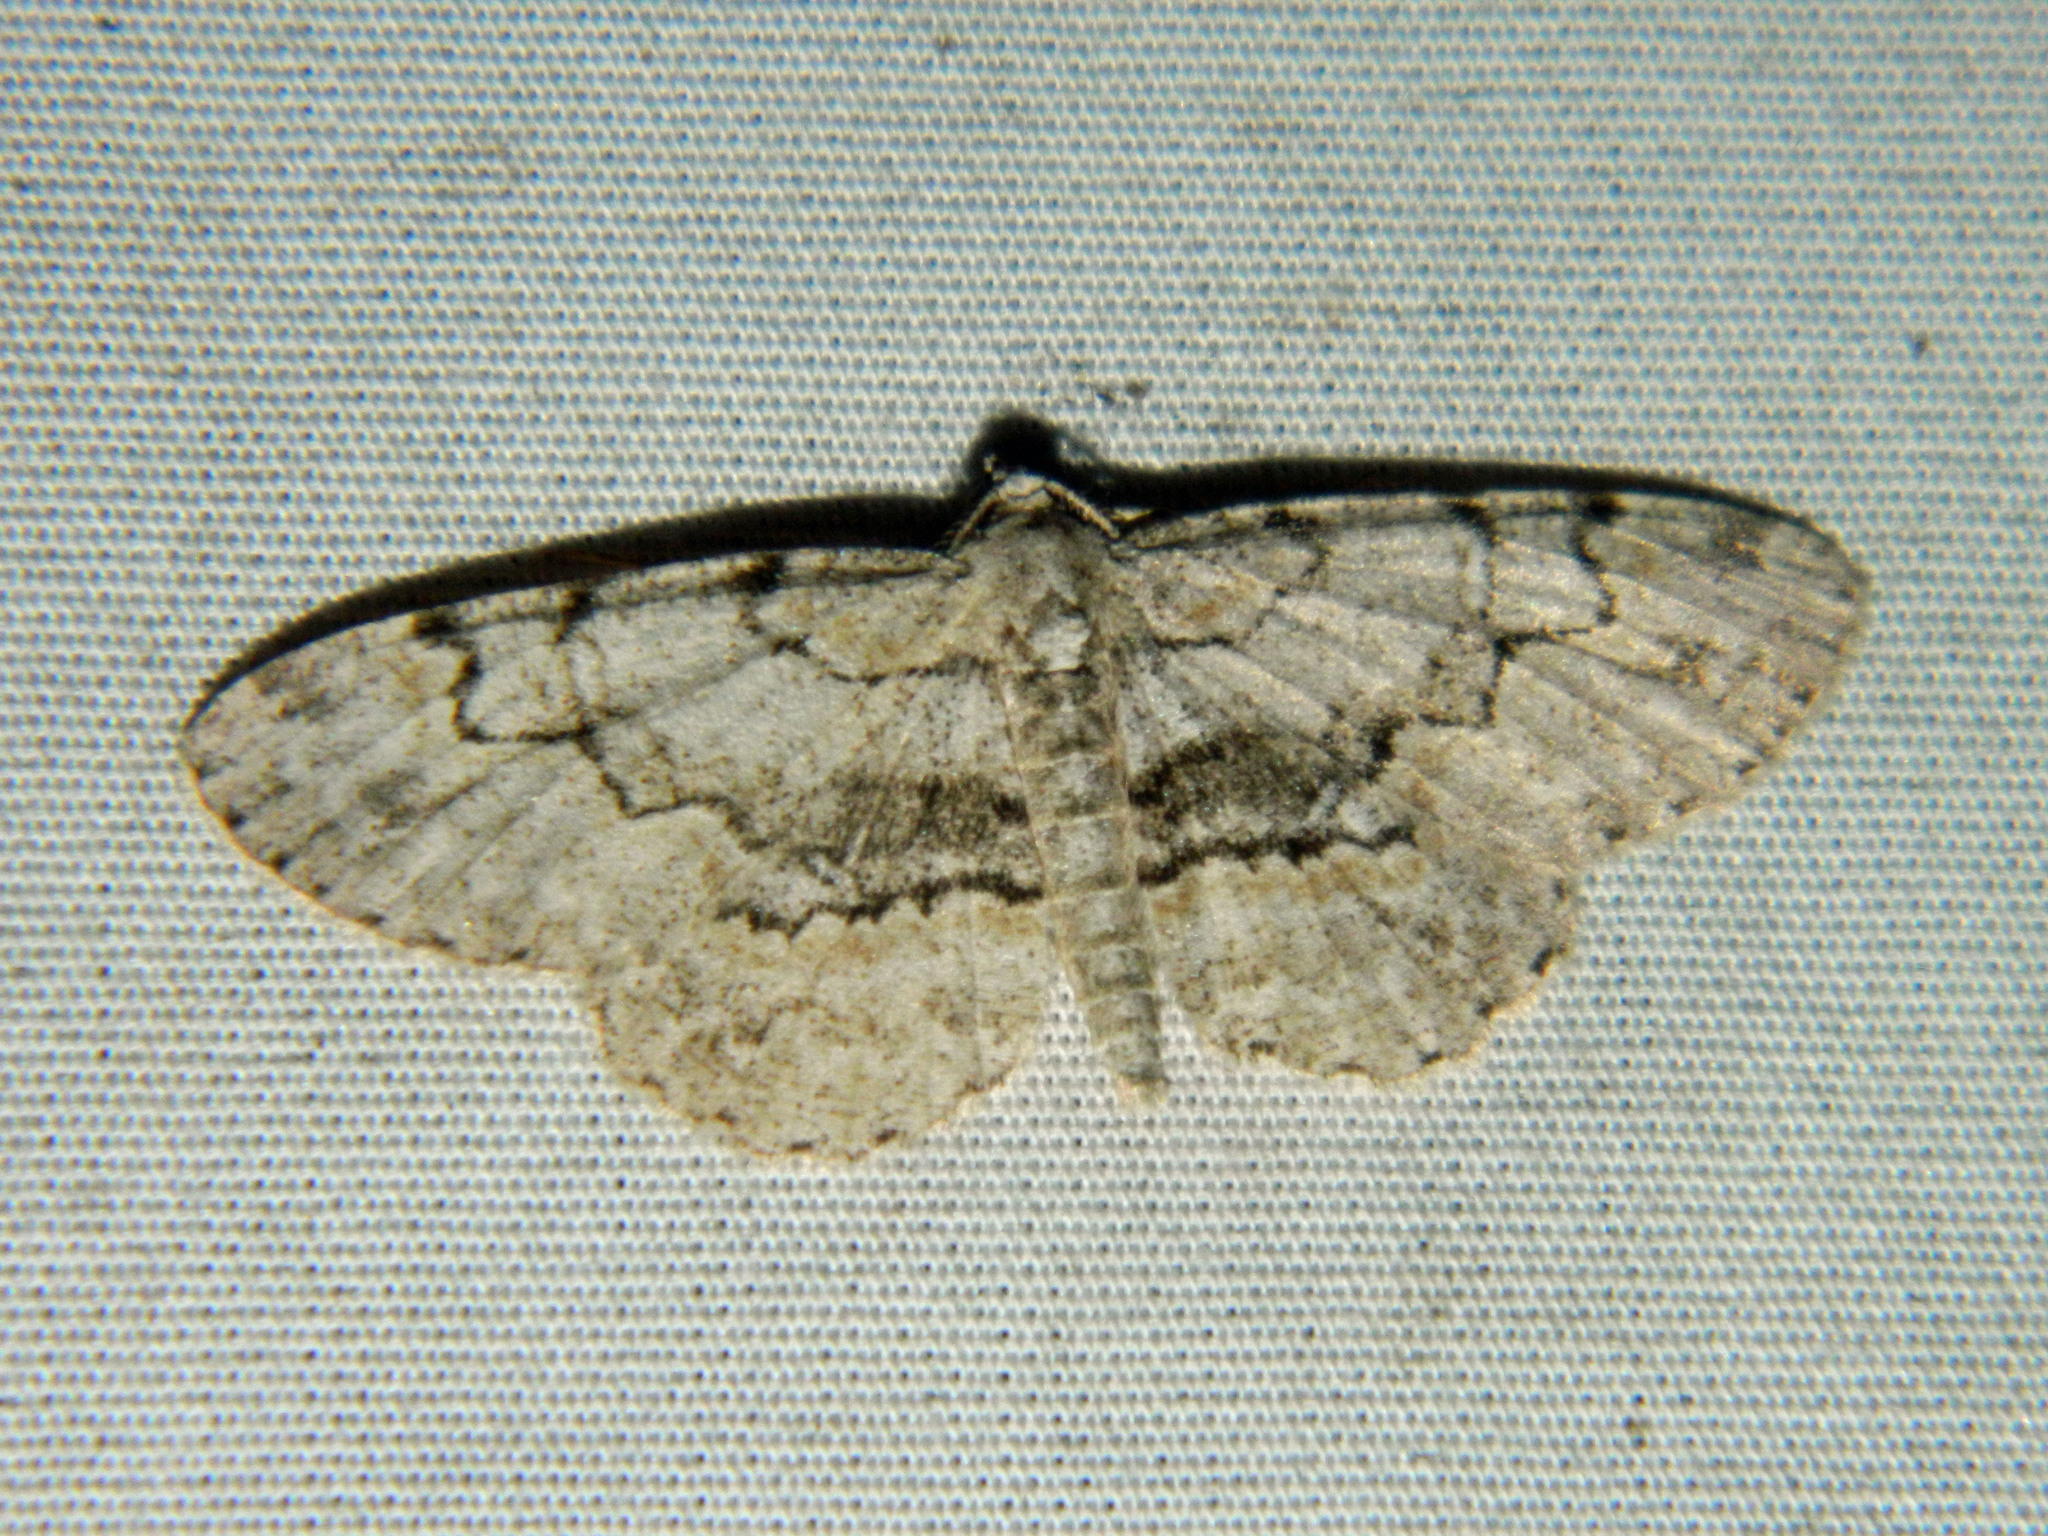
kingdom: Animalia
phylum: Arthropoda
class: Insecta
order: Lepidoptera
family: Geometridae
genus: Iridopsis
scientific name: Iridopsis ephyraria
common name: Pale-winged gray
